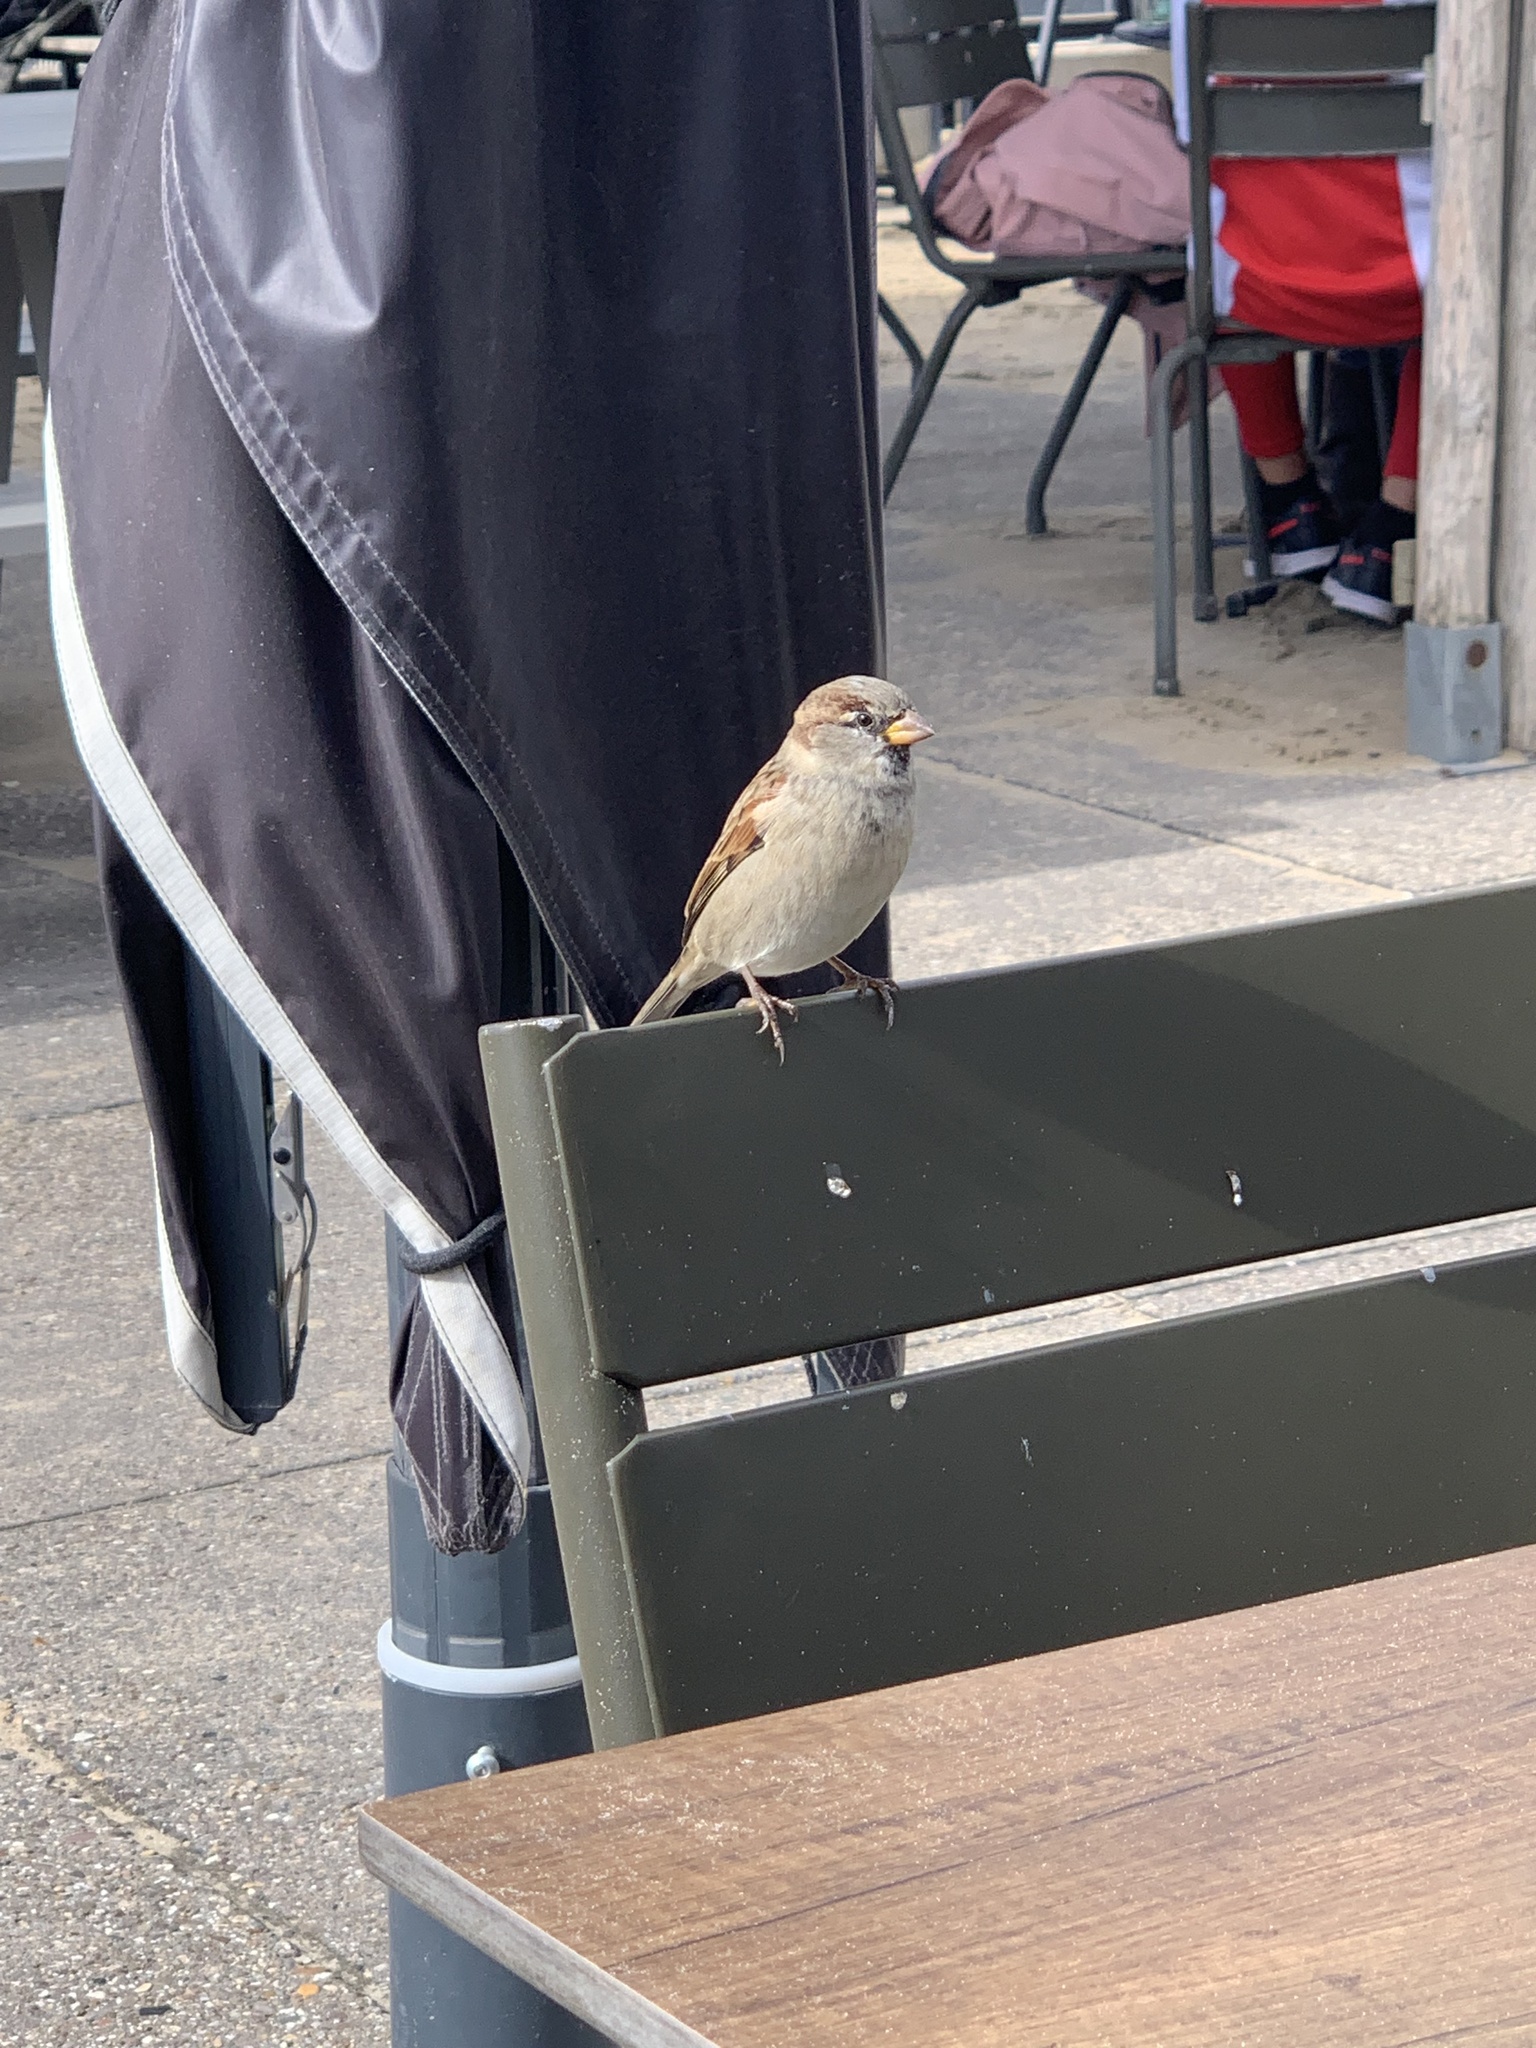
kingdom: Animalia
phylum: Chordata
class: Aves
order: Passeriformes
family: Passeridae
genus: Passer
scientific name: Passer domesticus
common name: House sparrow
